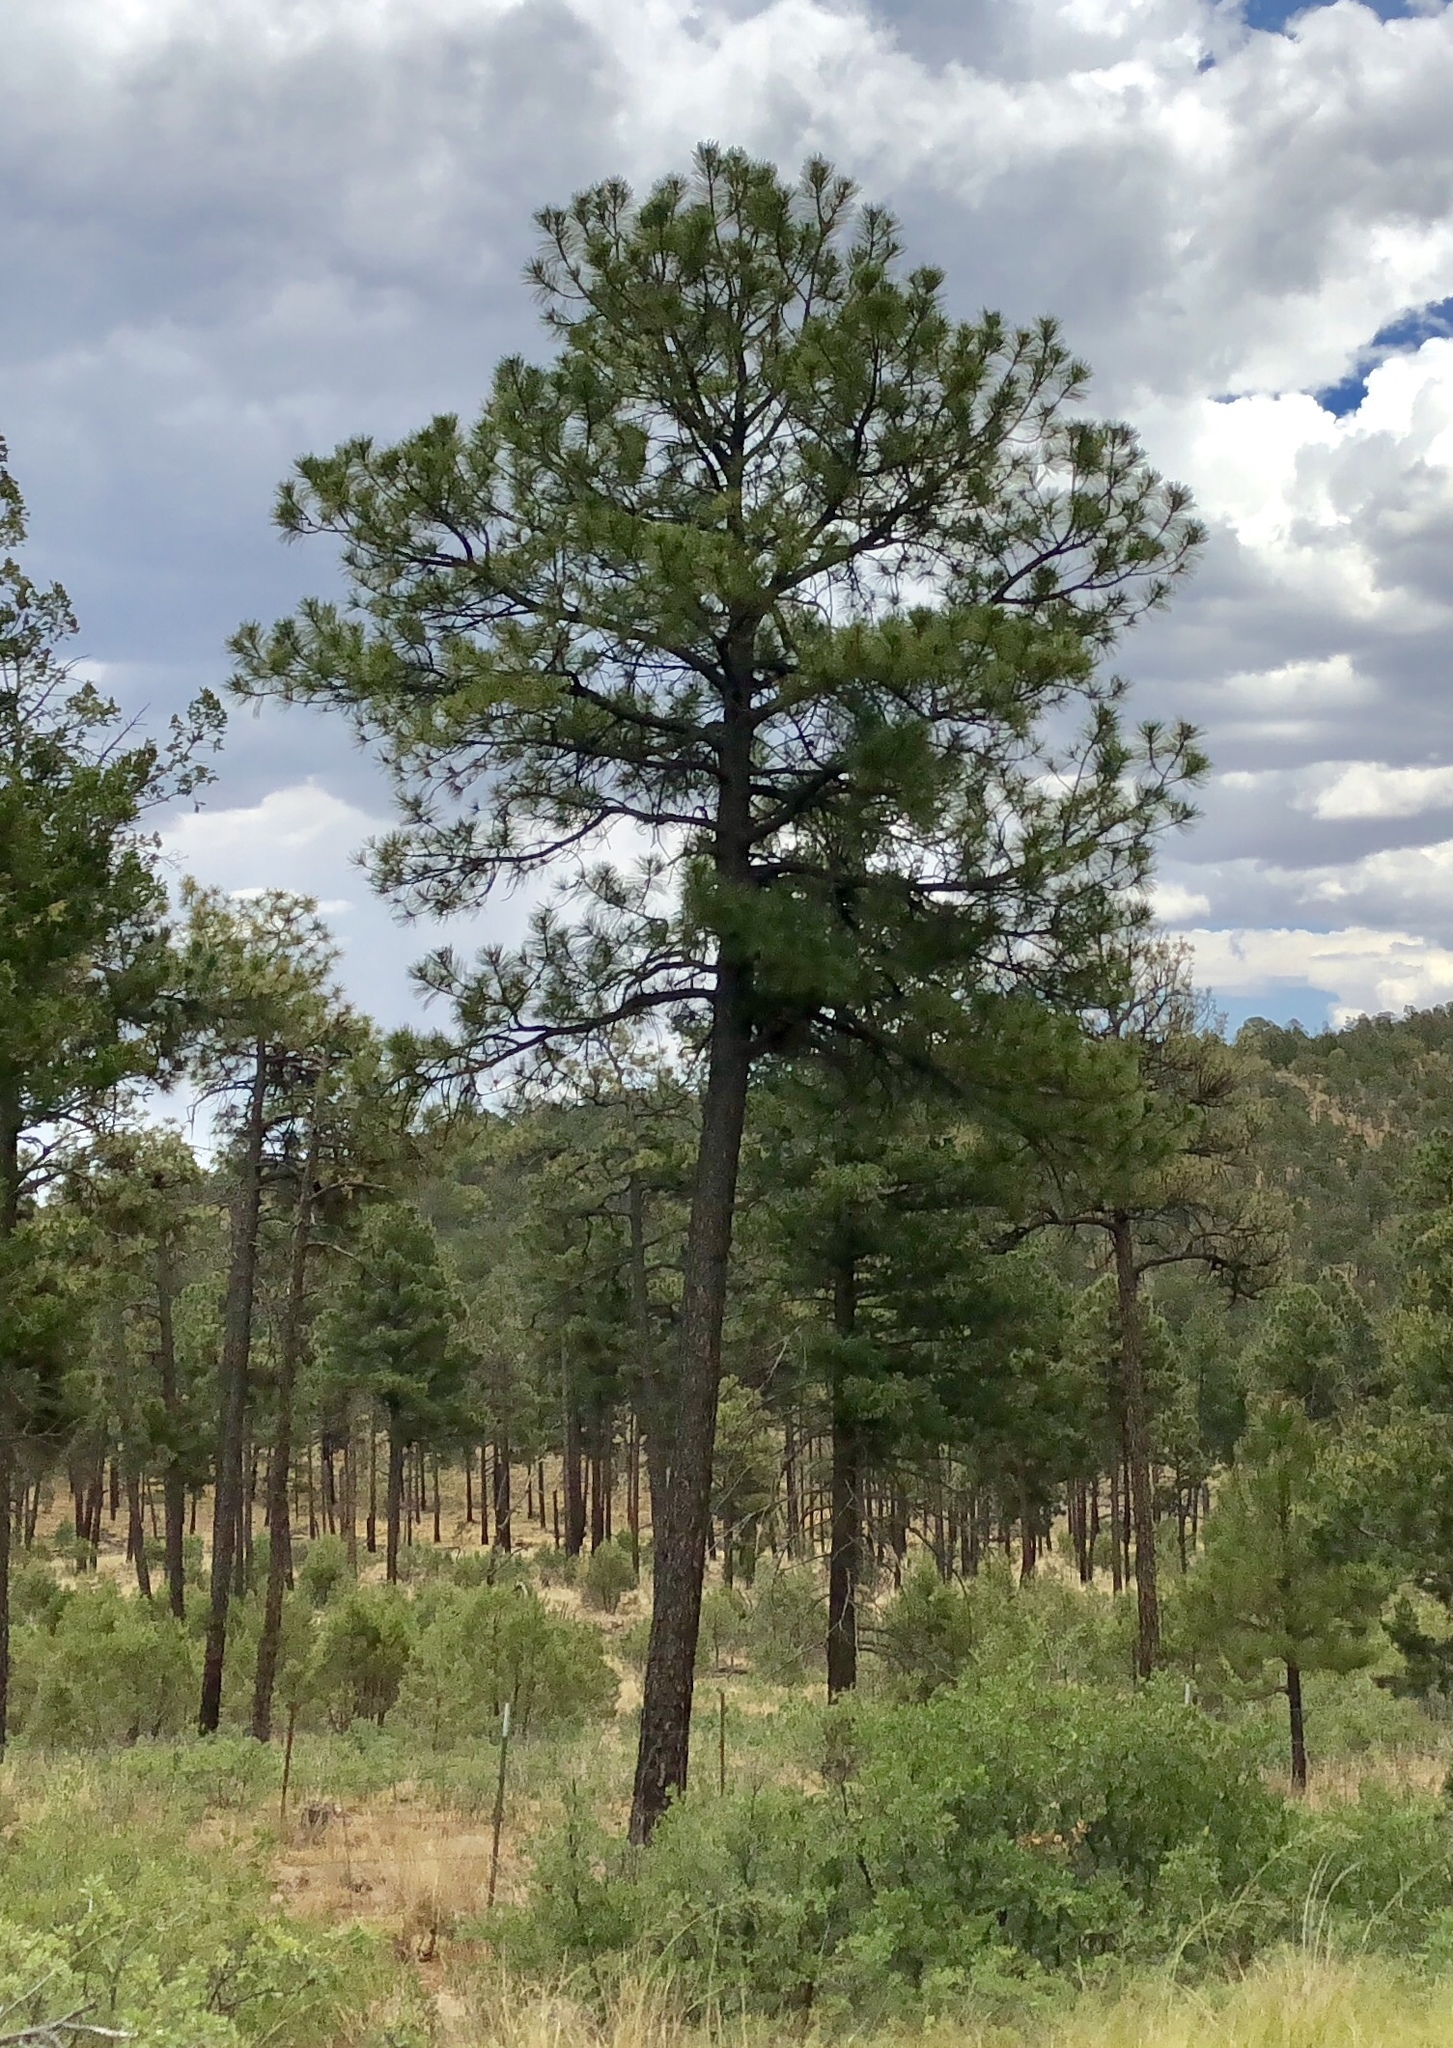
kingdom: Plantae
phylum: Tracheophyta
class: Pinopsida
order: Pinales
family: Pinaceae
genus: Pinus
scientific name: Pinus ponderosa
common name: Western yellow-pine
